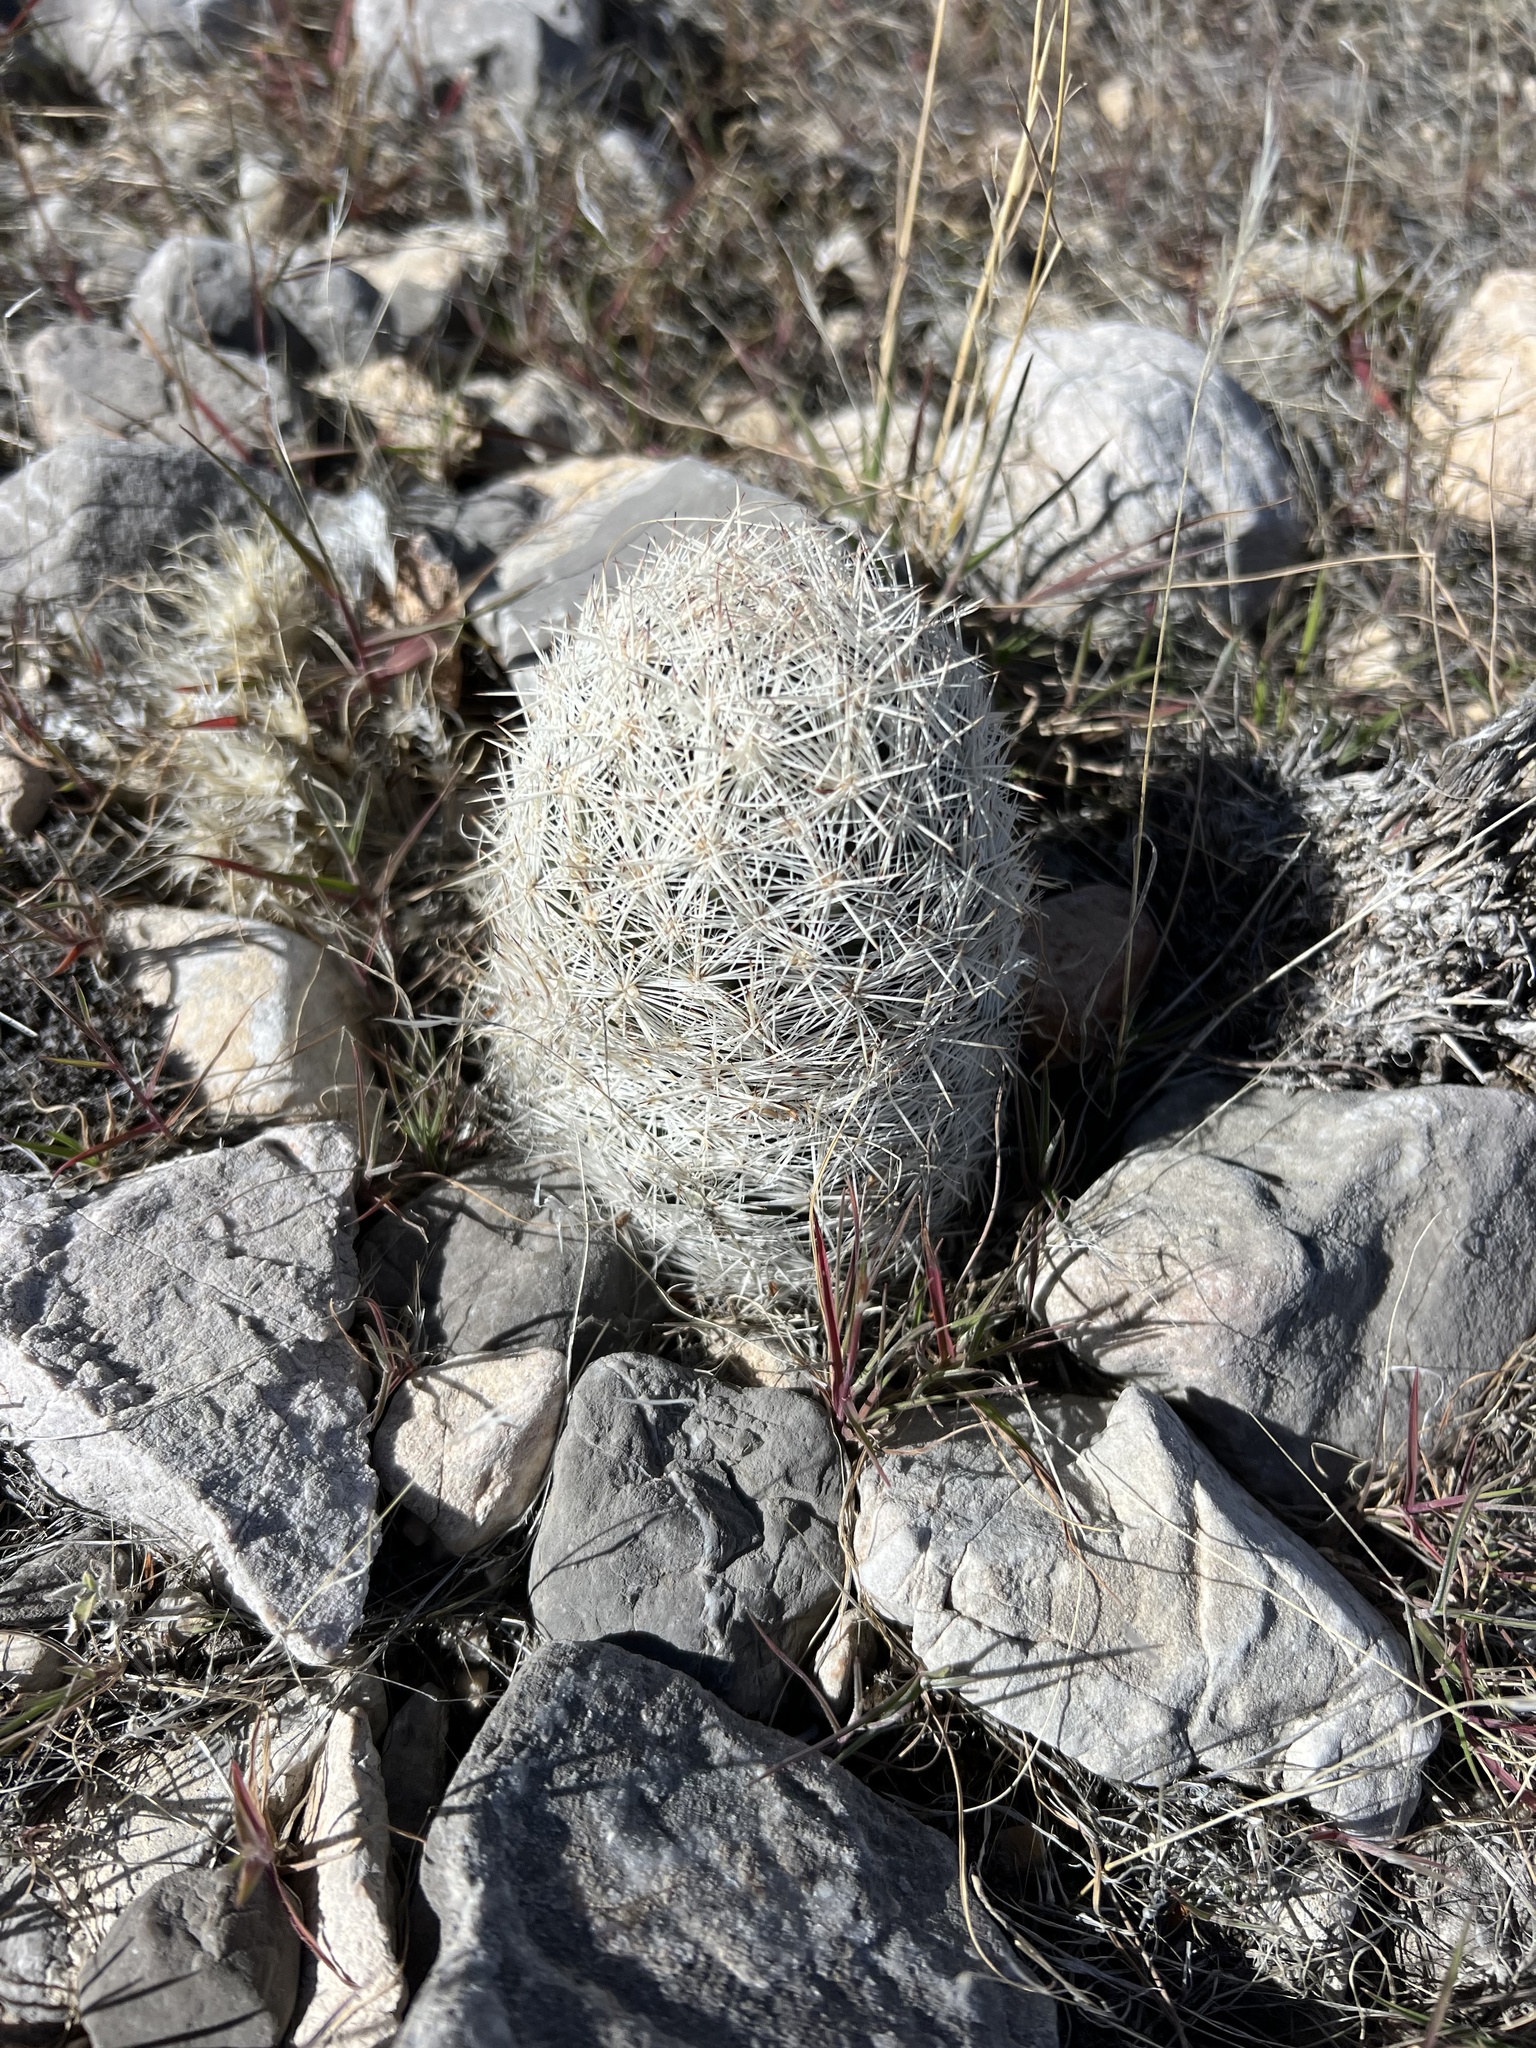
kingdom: Plantae
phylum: Tracheophyta
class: Magnoliopsida
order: Caryophyllales
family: Cactaceae
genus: Pelecyphora
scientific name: Pelecyphora dasyacantha
